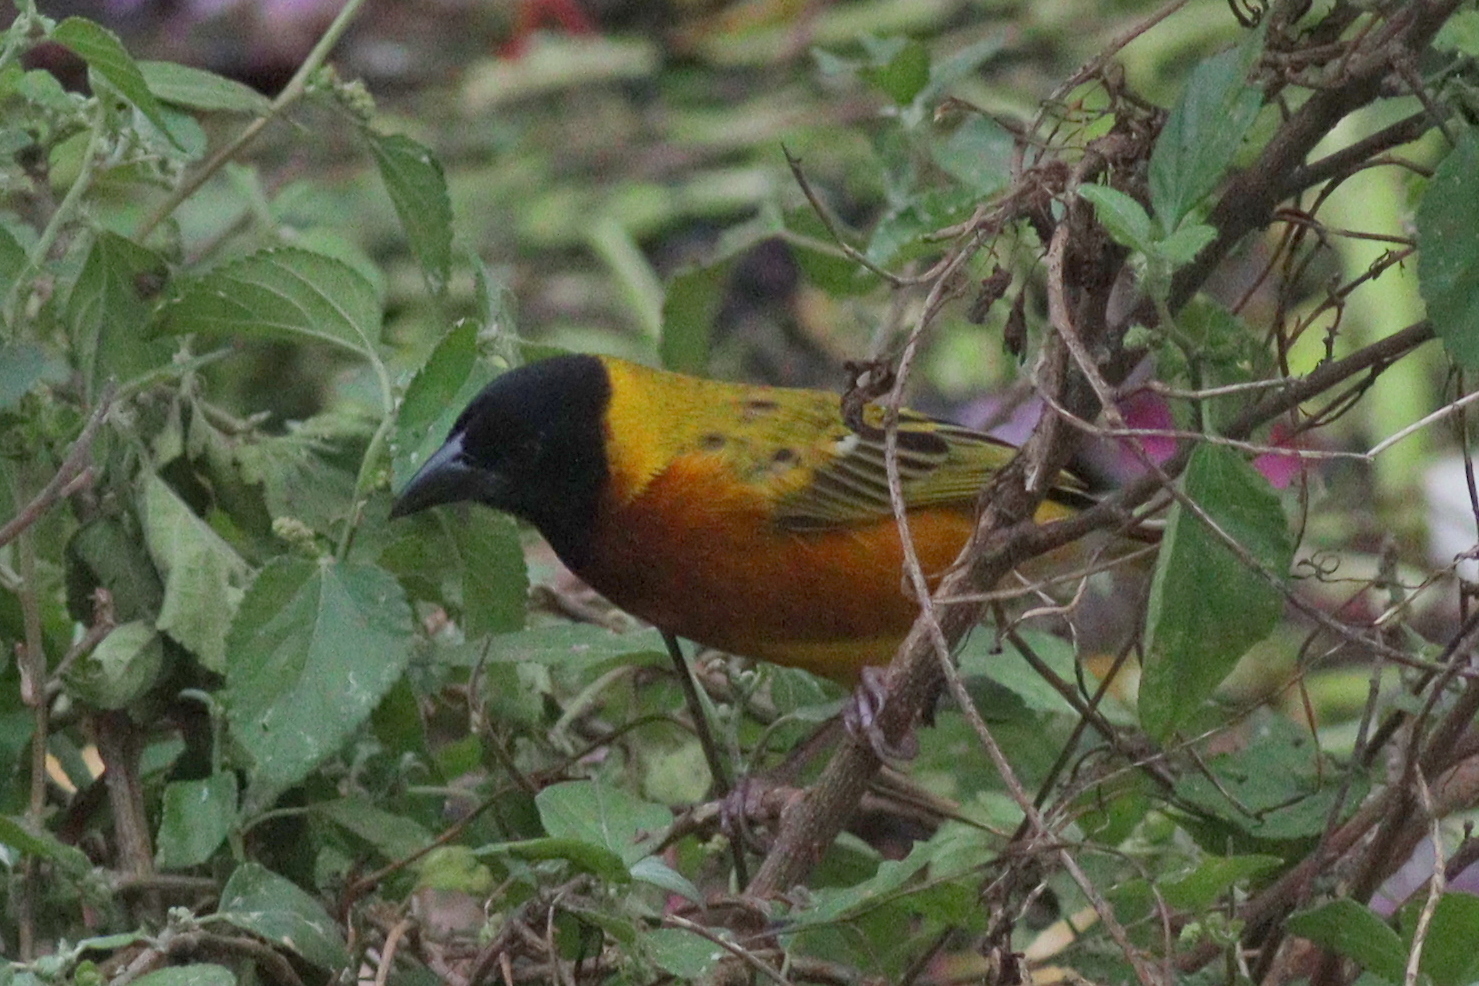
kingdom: Animalia
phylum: Chordata
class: Aves
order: Passeriformes
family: Ploceidae
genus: Ploceus
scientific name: Ploceus melanocephalus
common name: Black-headed weaver
